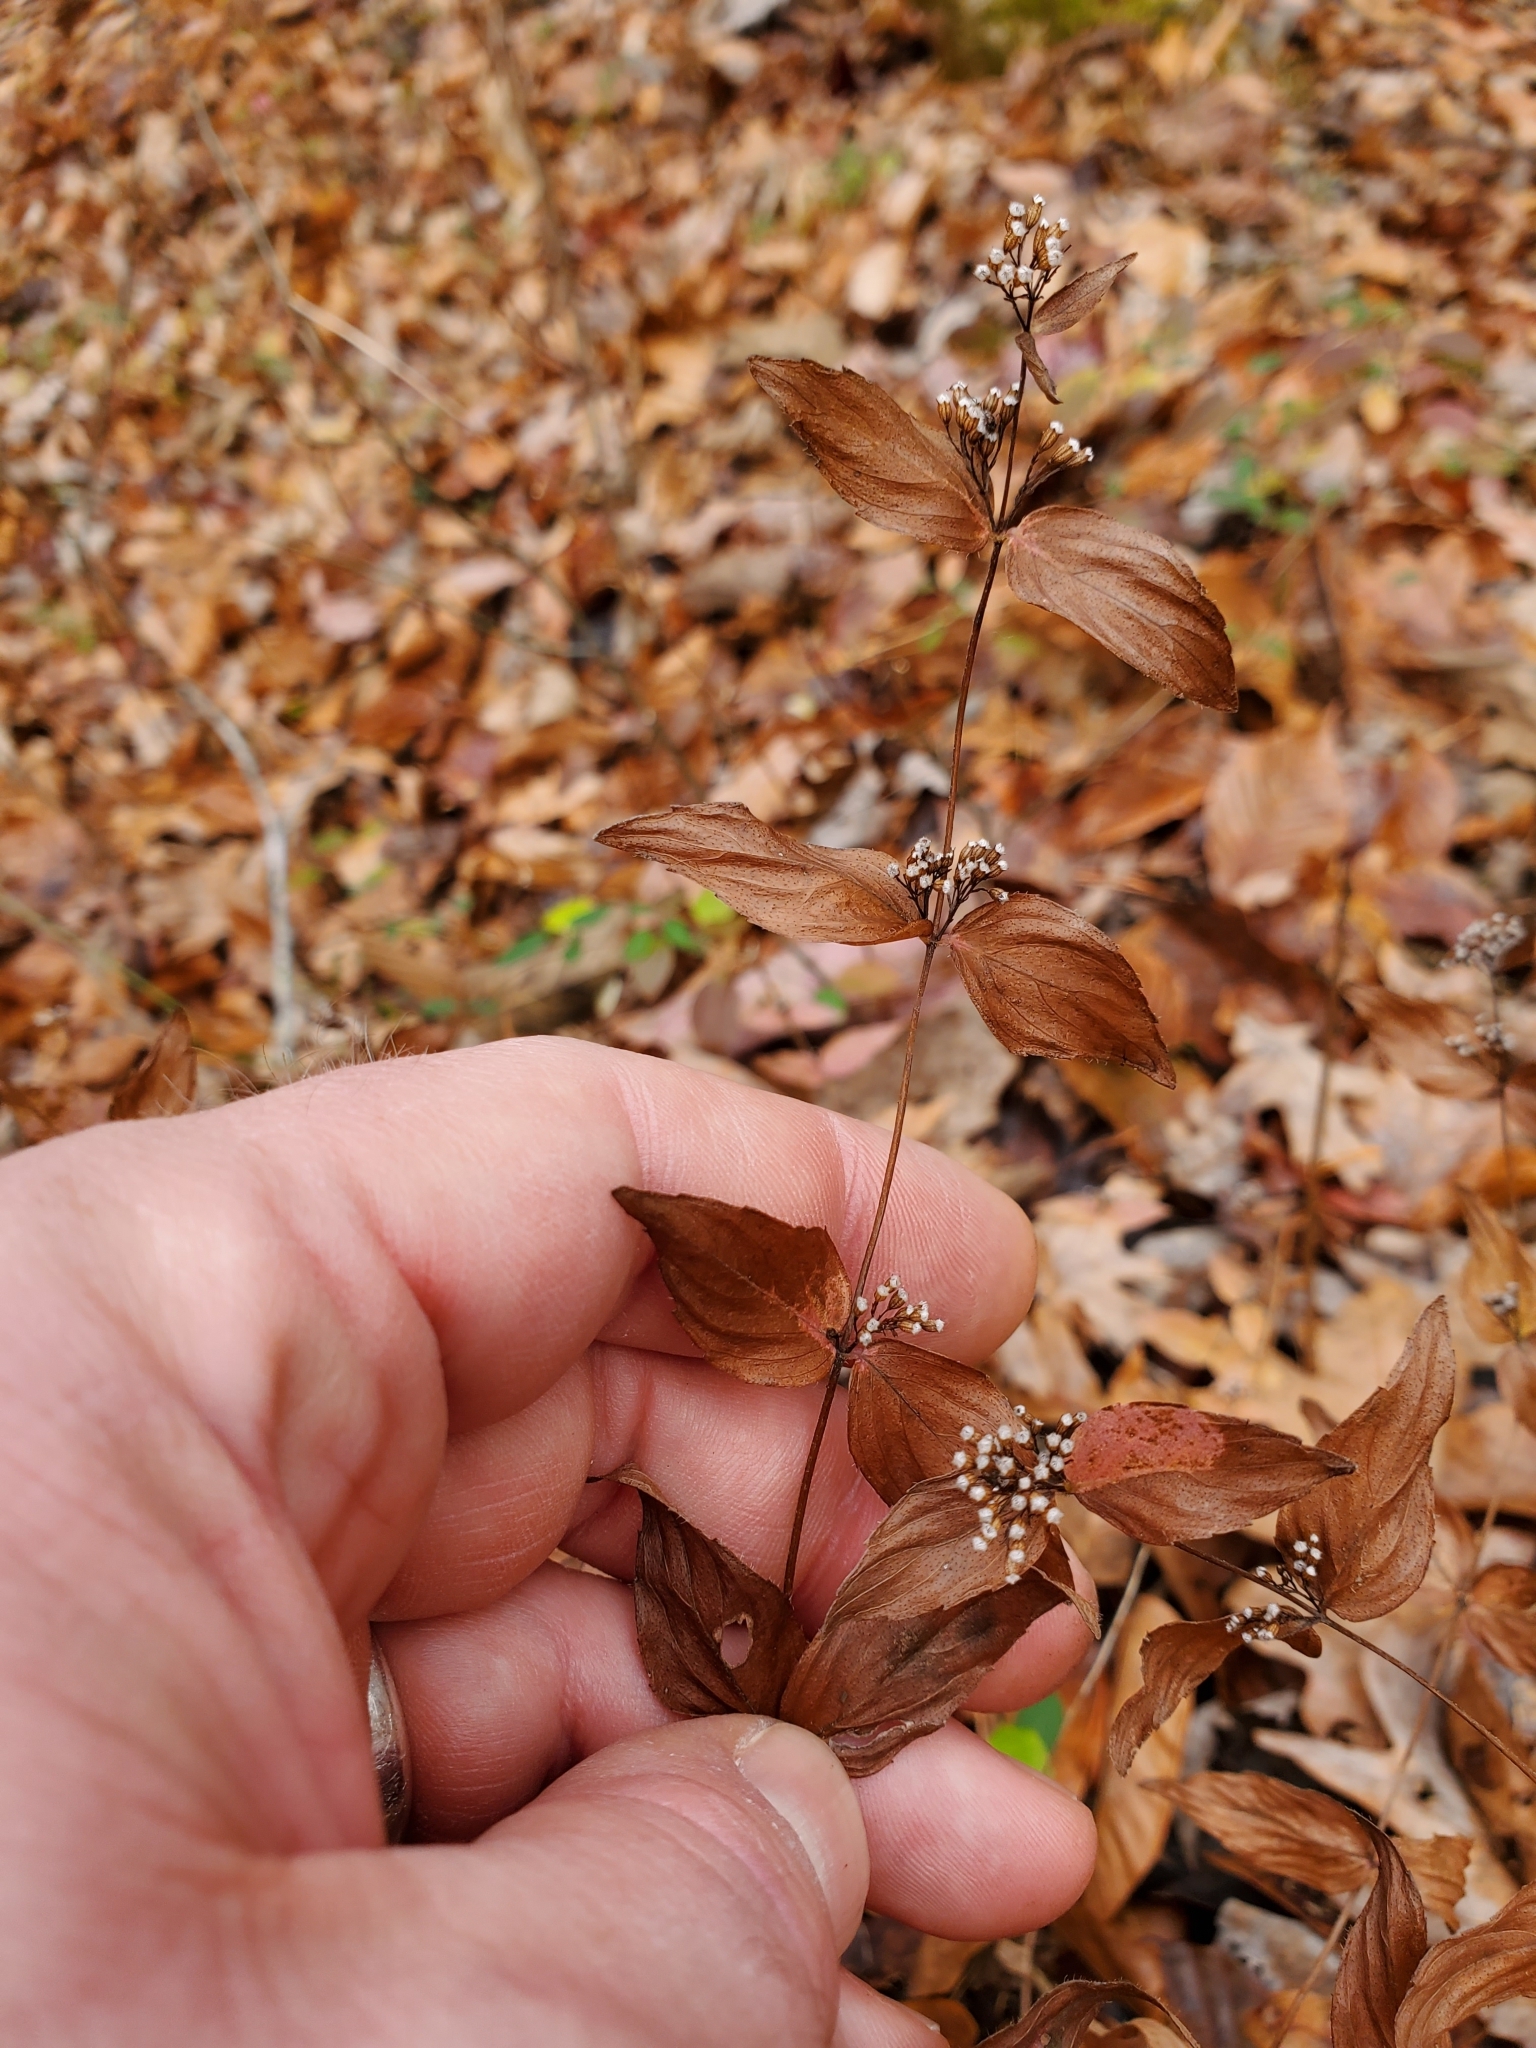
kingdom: Plantae
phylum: Tracheophyta
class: Magnoliopsida
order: Lamiales
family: Lamiaceae
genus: Cunila
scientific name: Cunila origanoides
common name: American dittany
